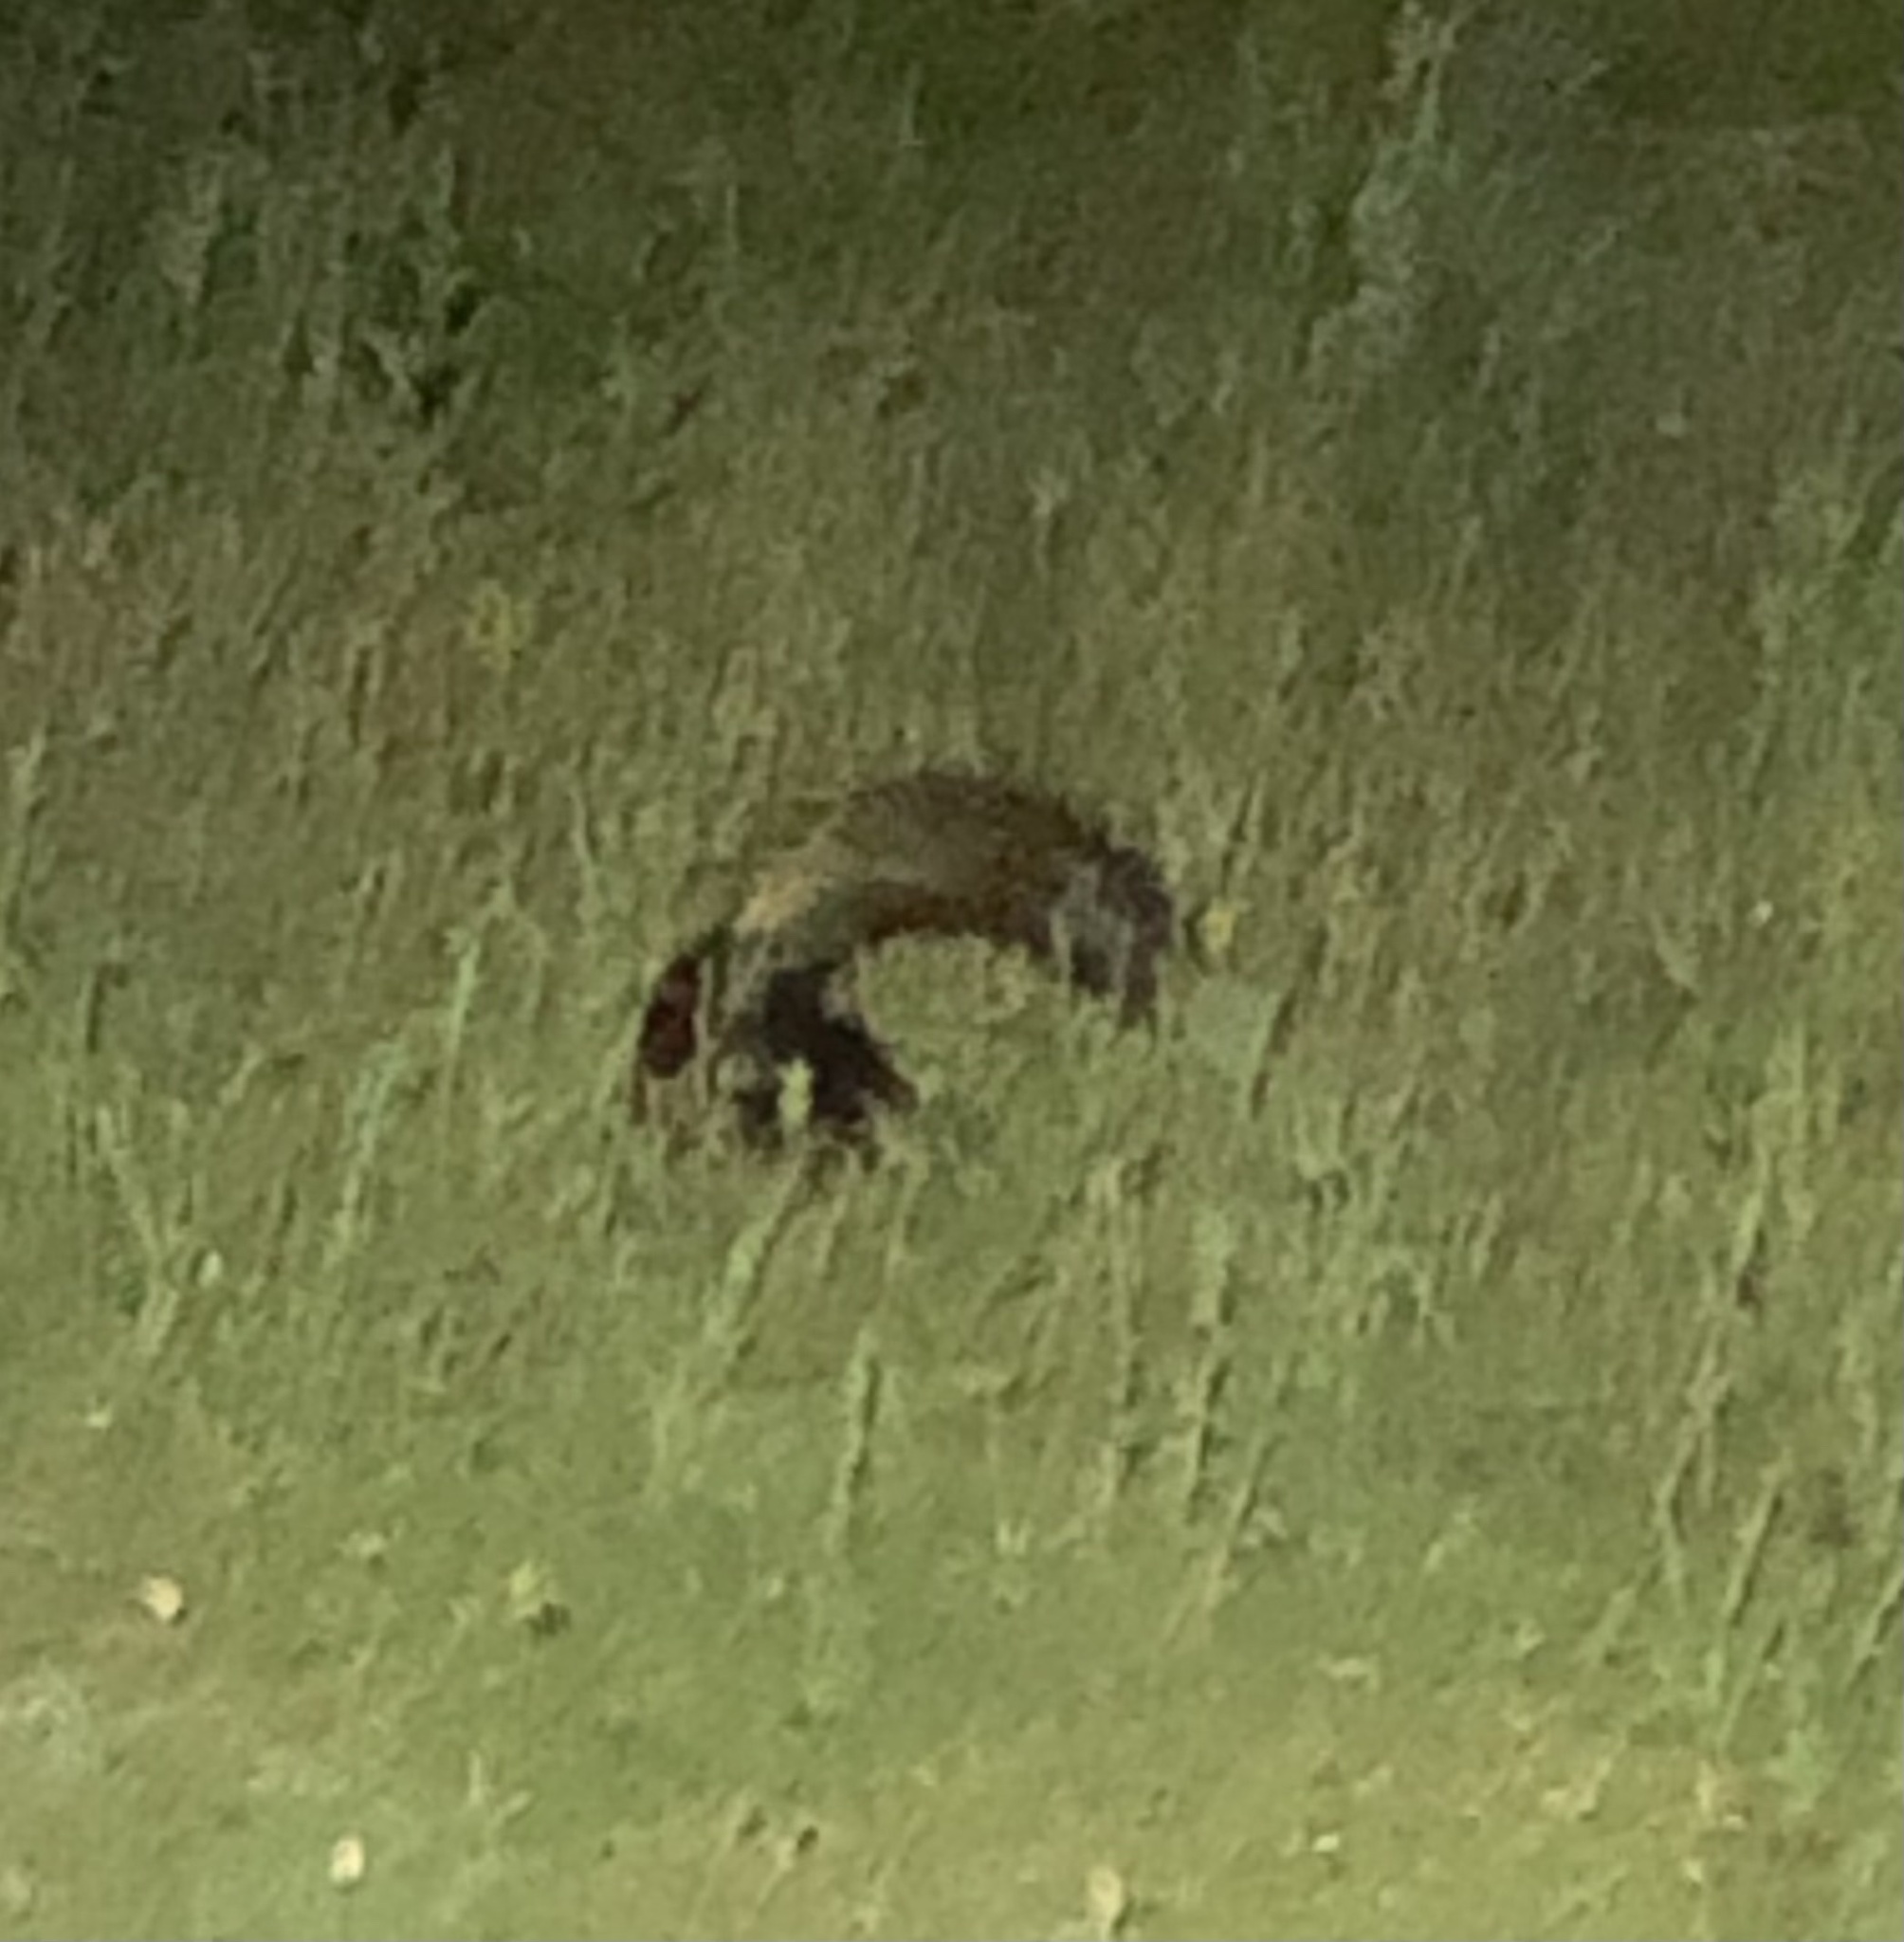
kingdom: Animalia
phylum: Chordata
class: Mammalia
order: Carnivora
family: Mephitidae
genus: Mephitis
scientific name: Mephitis mephitis
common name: Striped skunk
